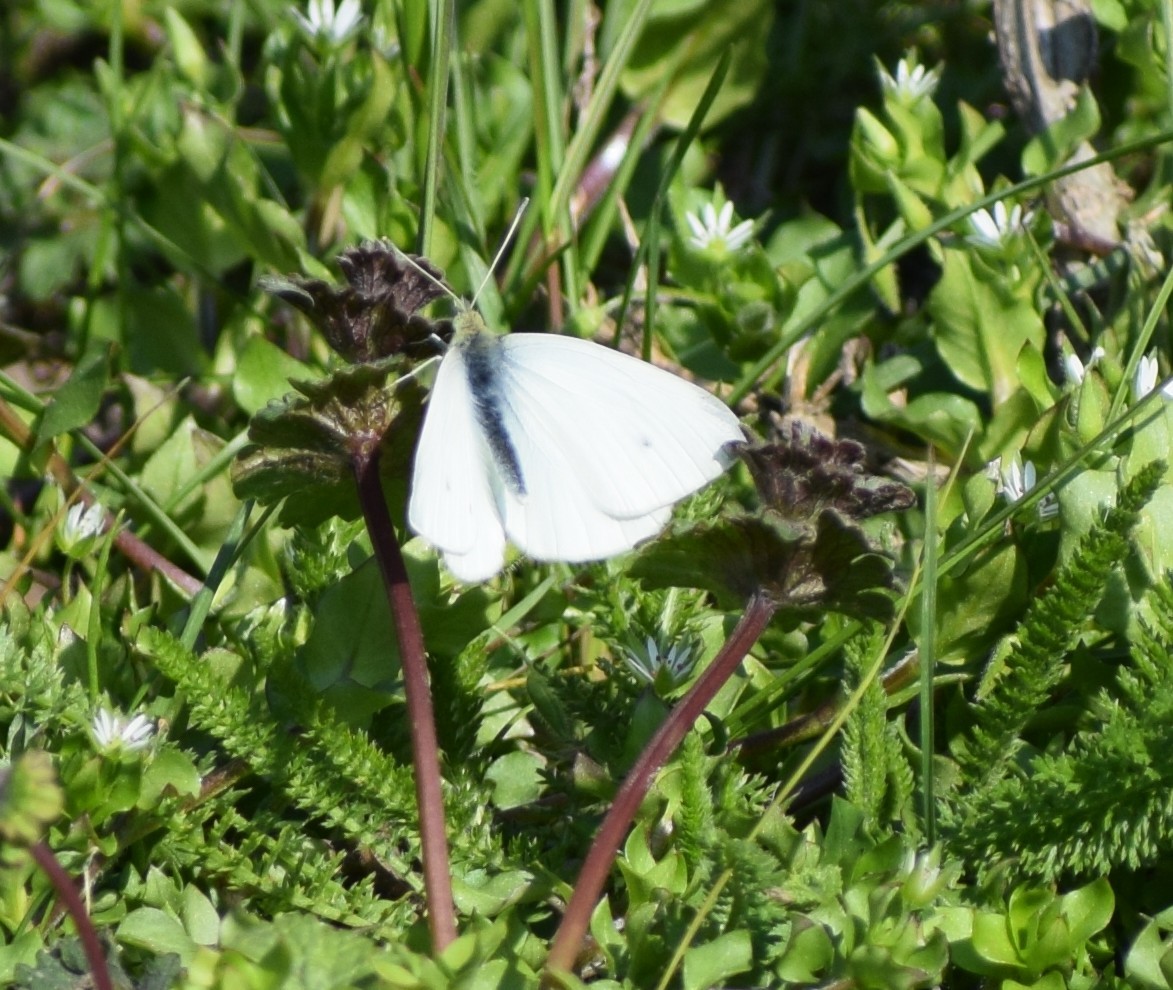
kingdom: Animalia
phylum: Arthropoda
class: Insecta
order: Lepidoptera
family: Pieridae
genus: Pieris
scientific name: Pieris rapae
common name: Small white
